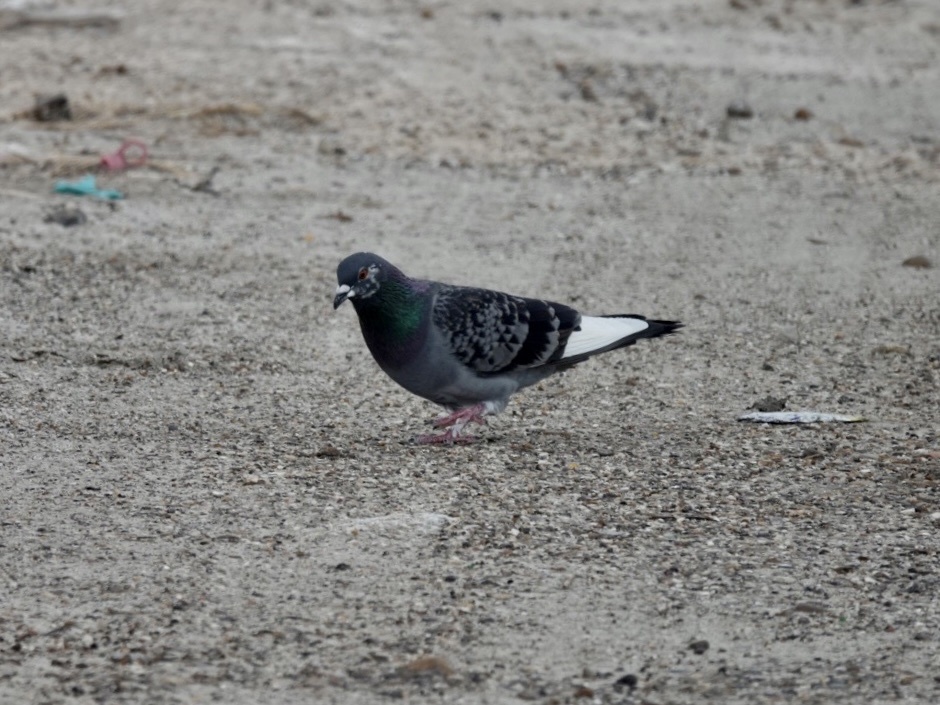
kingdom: Animalia
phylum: Chordata
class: Aves
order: Columbiformes
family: Columbidae
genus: Columba
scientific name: Columba livia
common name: Rock pigeon
